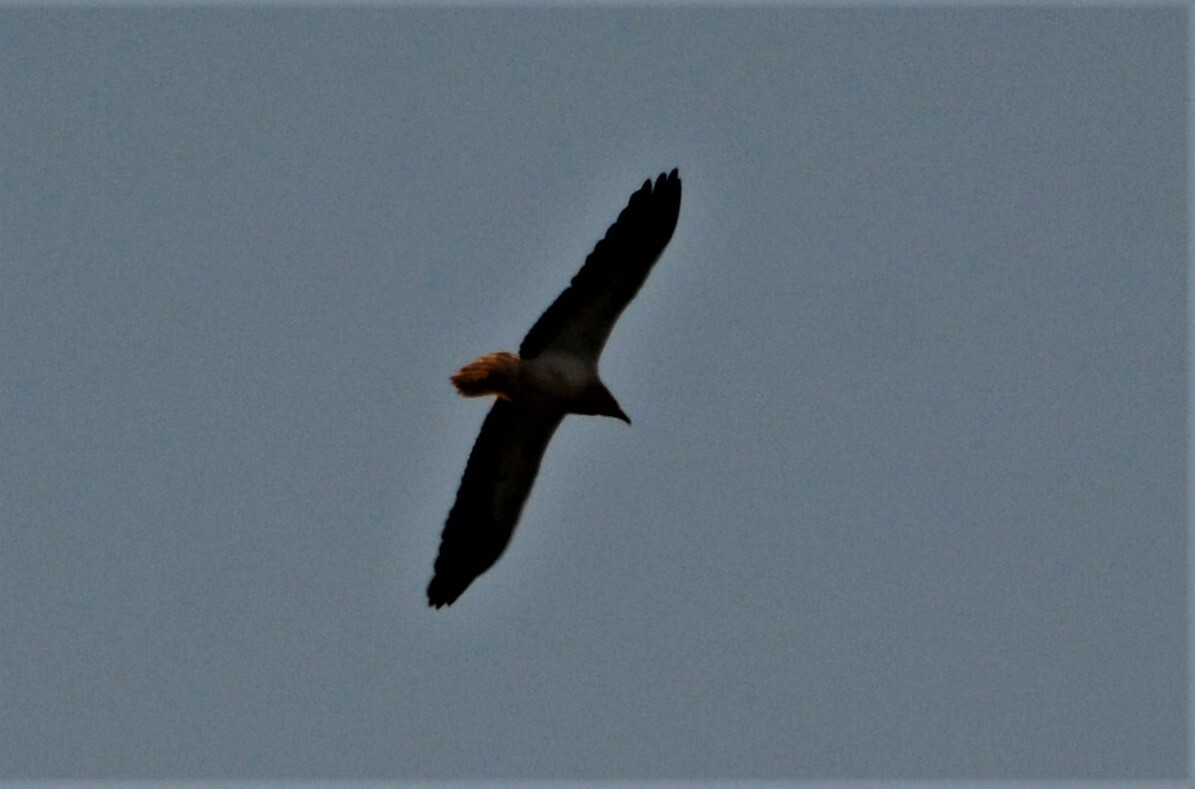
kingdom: Animalia
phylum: Chordata
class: Aves
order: Accipitriformes
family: Accipitridae
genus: Neophron
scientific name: Neophron percnopterus
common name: Egyptian vulture
